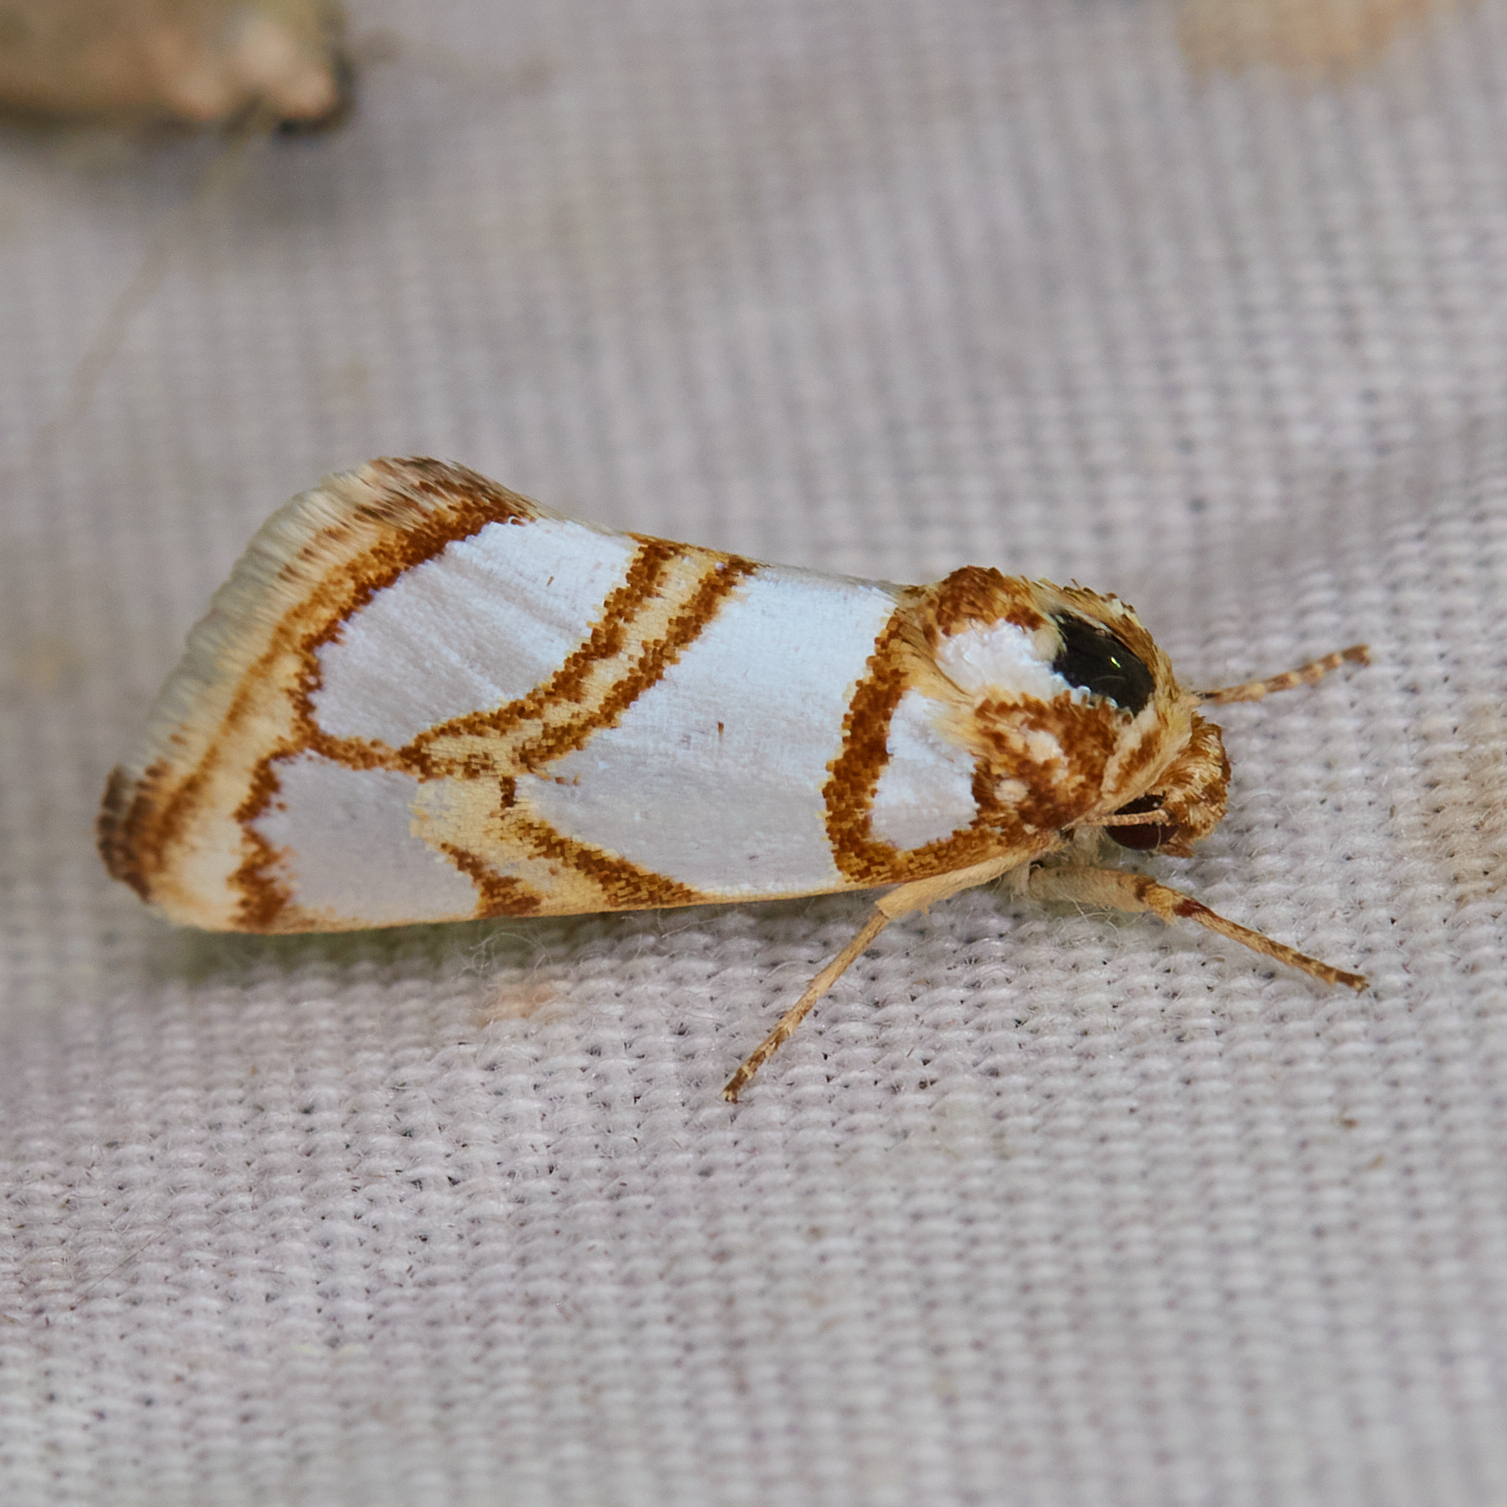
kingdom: Animalia
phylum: Arthropoda
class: Insecta
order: Lepidoptera
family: Noctuidae
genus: Argentostiria
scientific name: Argentostiria koebelei
